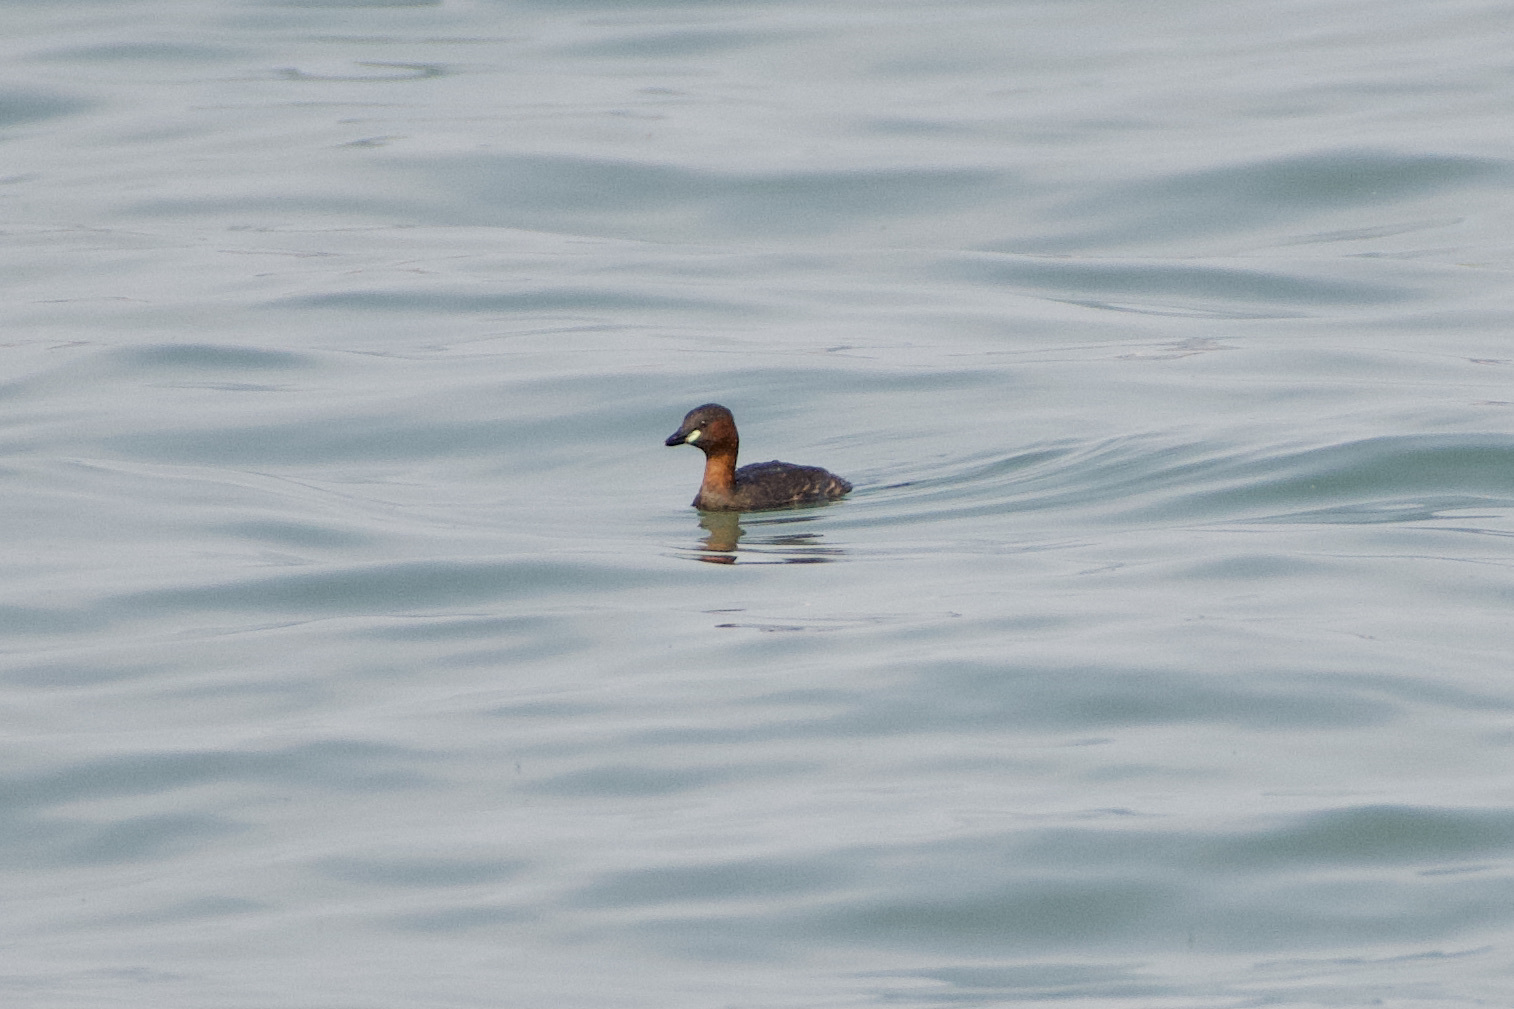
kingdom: Animalia
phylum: Chordata
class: Aves
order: Podicipediformes
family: Podicipedidae
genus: Tachybaptus
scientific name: Tachybaptus ruficollis
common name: Little grebe
